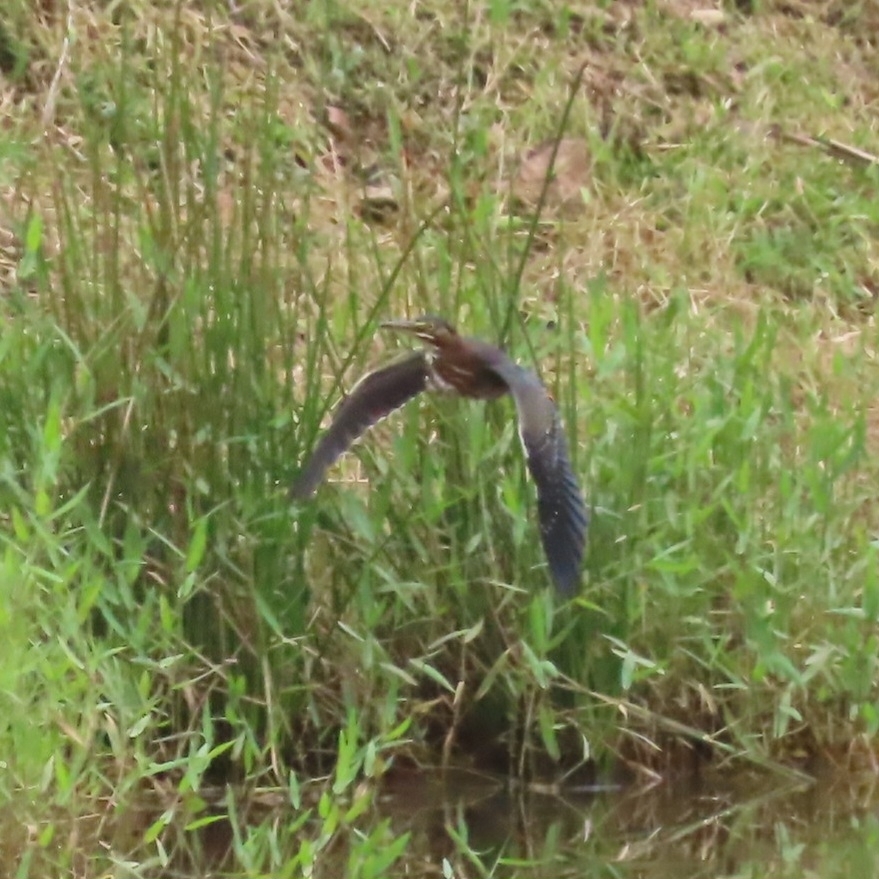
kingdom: Animalia
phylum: Chordata
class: Aves
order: Pelecaniformes
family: Ardeidae
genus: Butorides
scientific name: Butorides virescens
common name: Green heron
